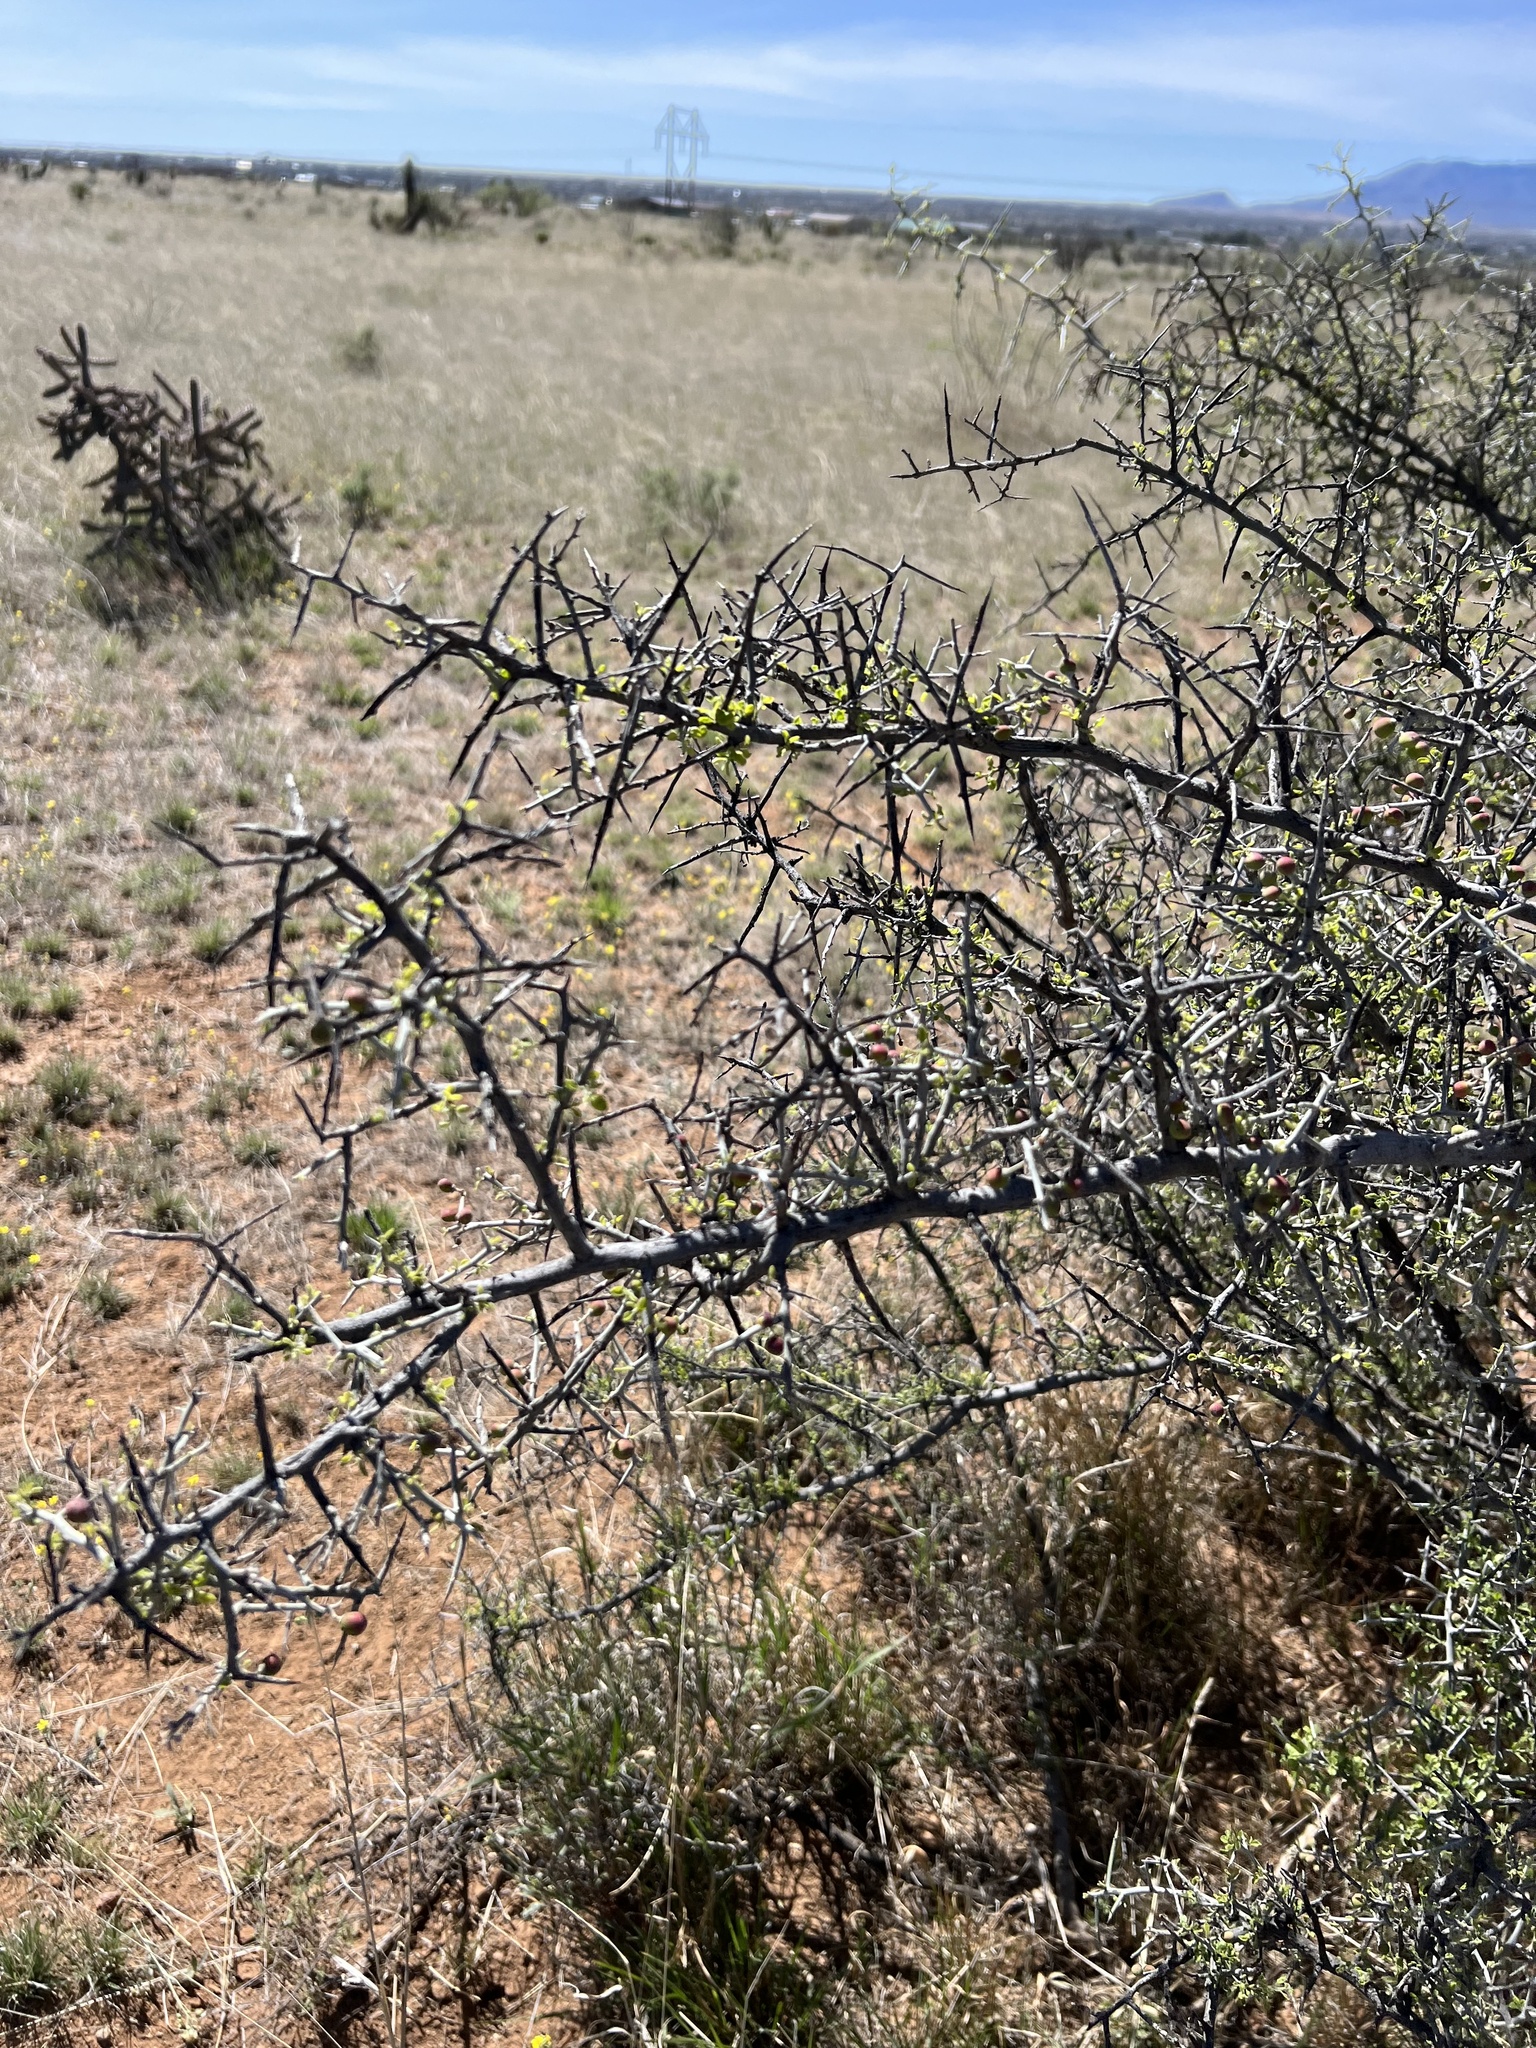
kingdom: Plantae
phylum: Tracheophyta
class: Magnoliopsida
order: Rosales
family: Rhamnaceae
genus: Sarcomphalus
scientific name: Sarcomphalus obtusifolius
